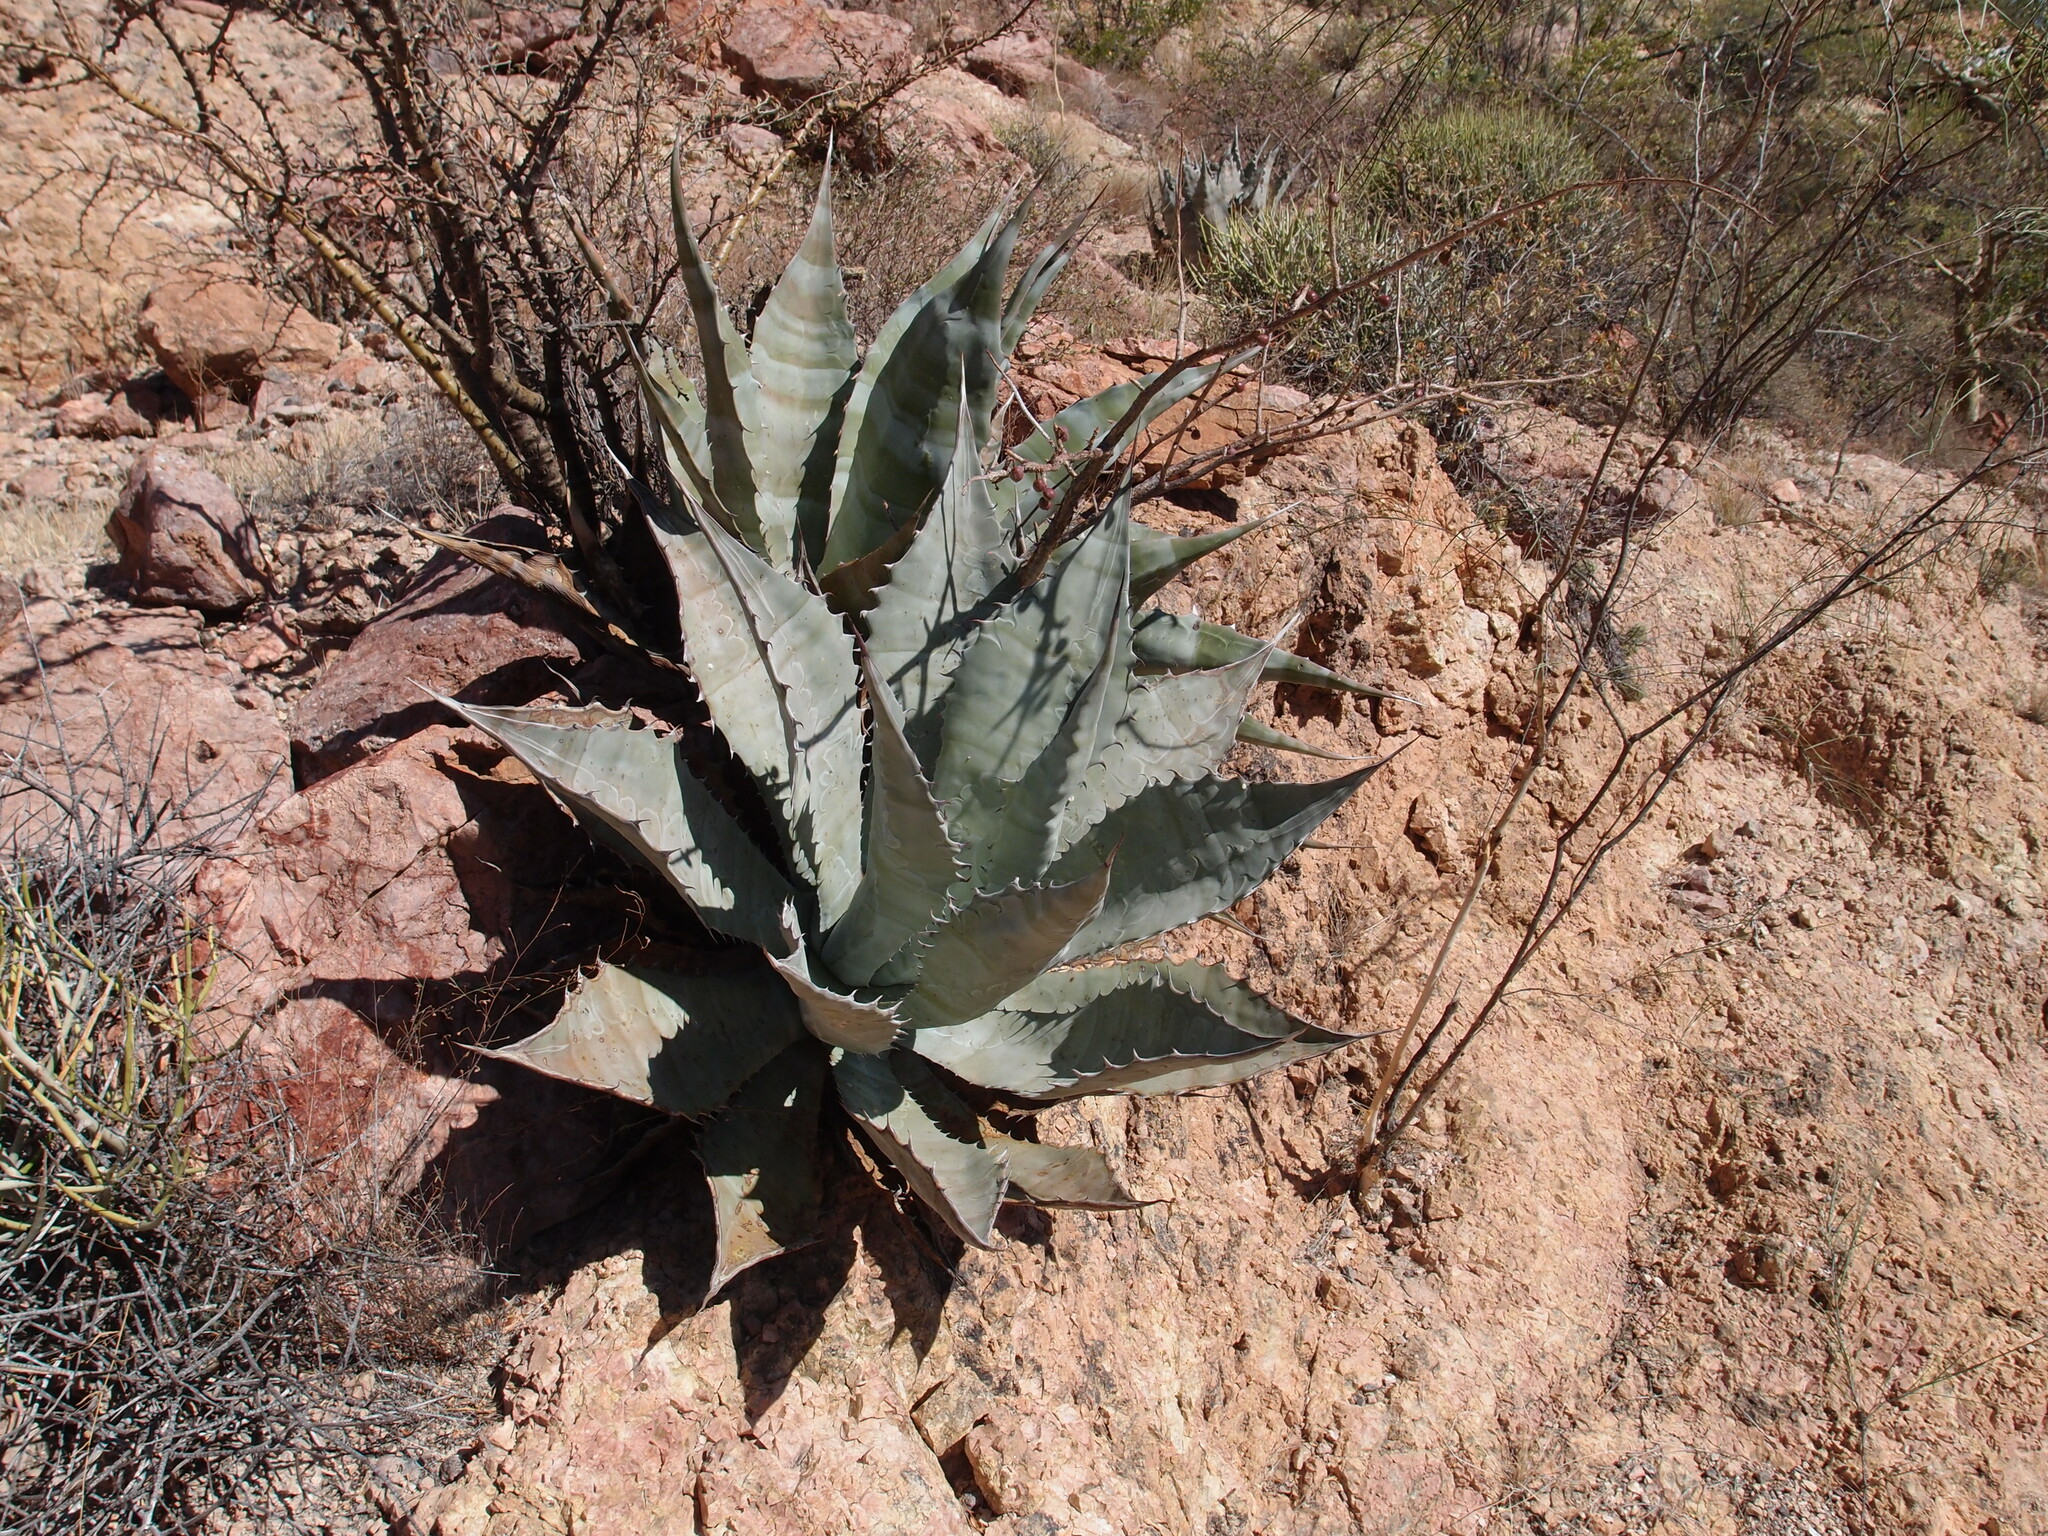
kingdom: Plantae
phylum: Tracheophyta
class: Liliopsida
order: Asparagales
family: Asparagaceae
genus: Agave
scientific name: Agave colorata
